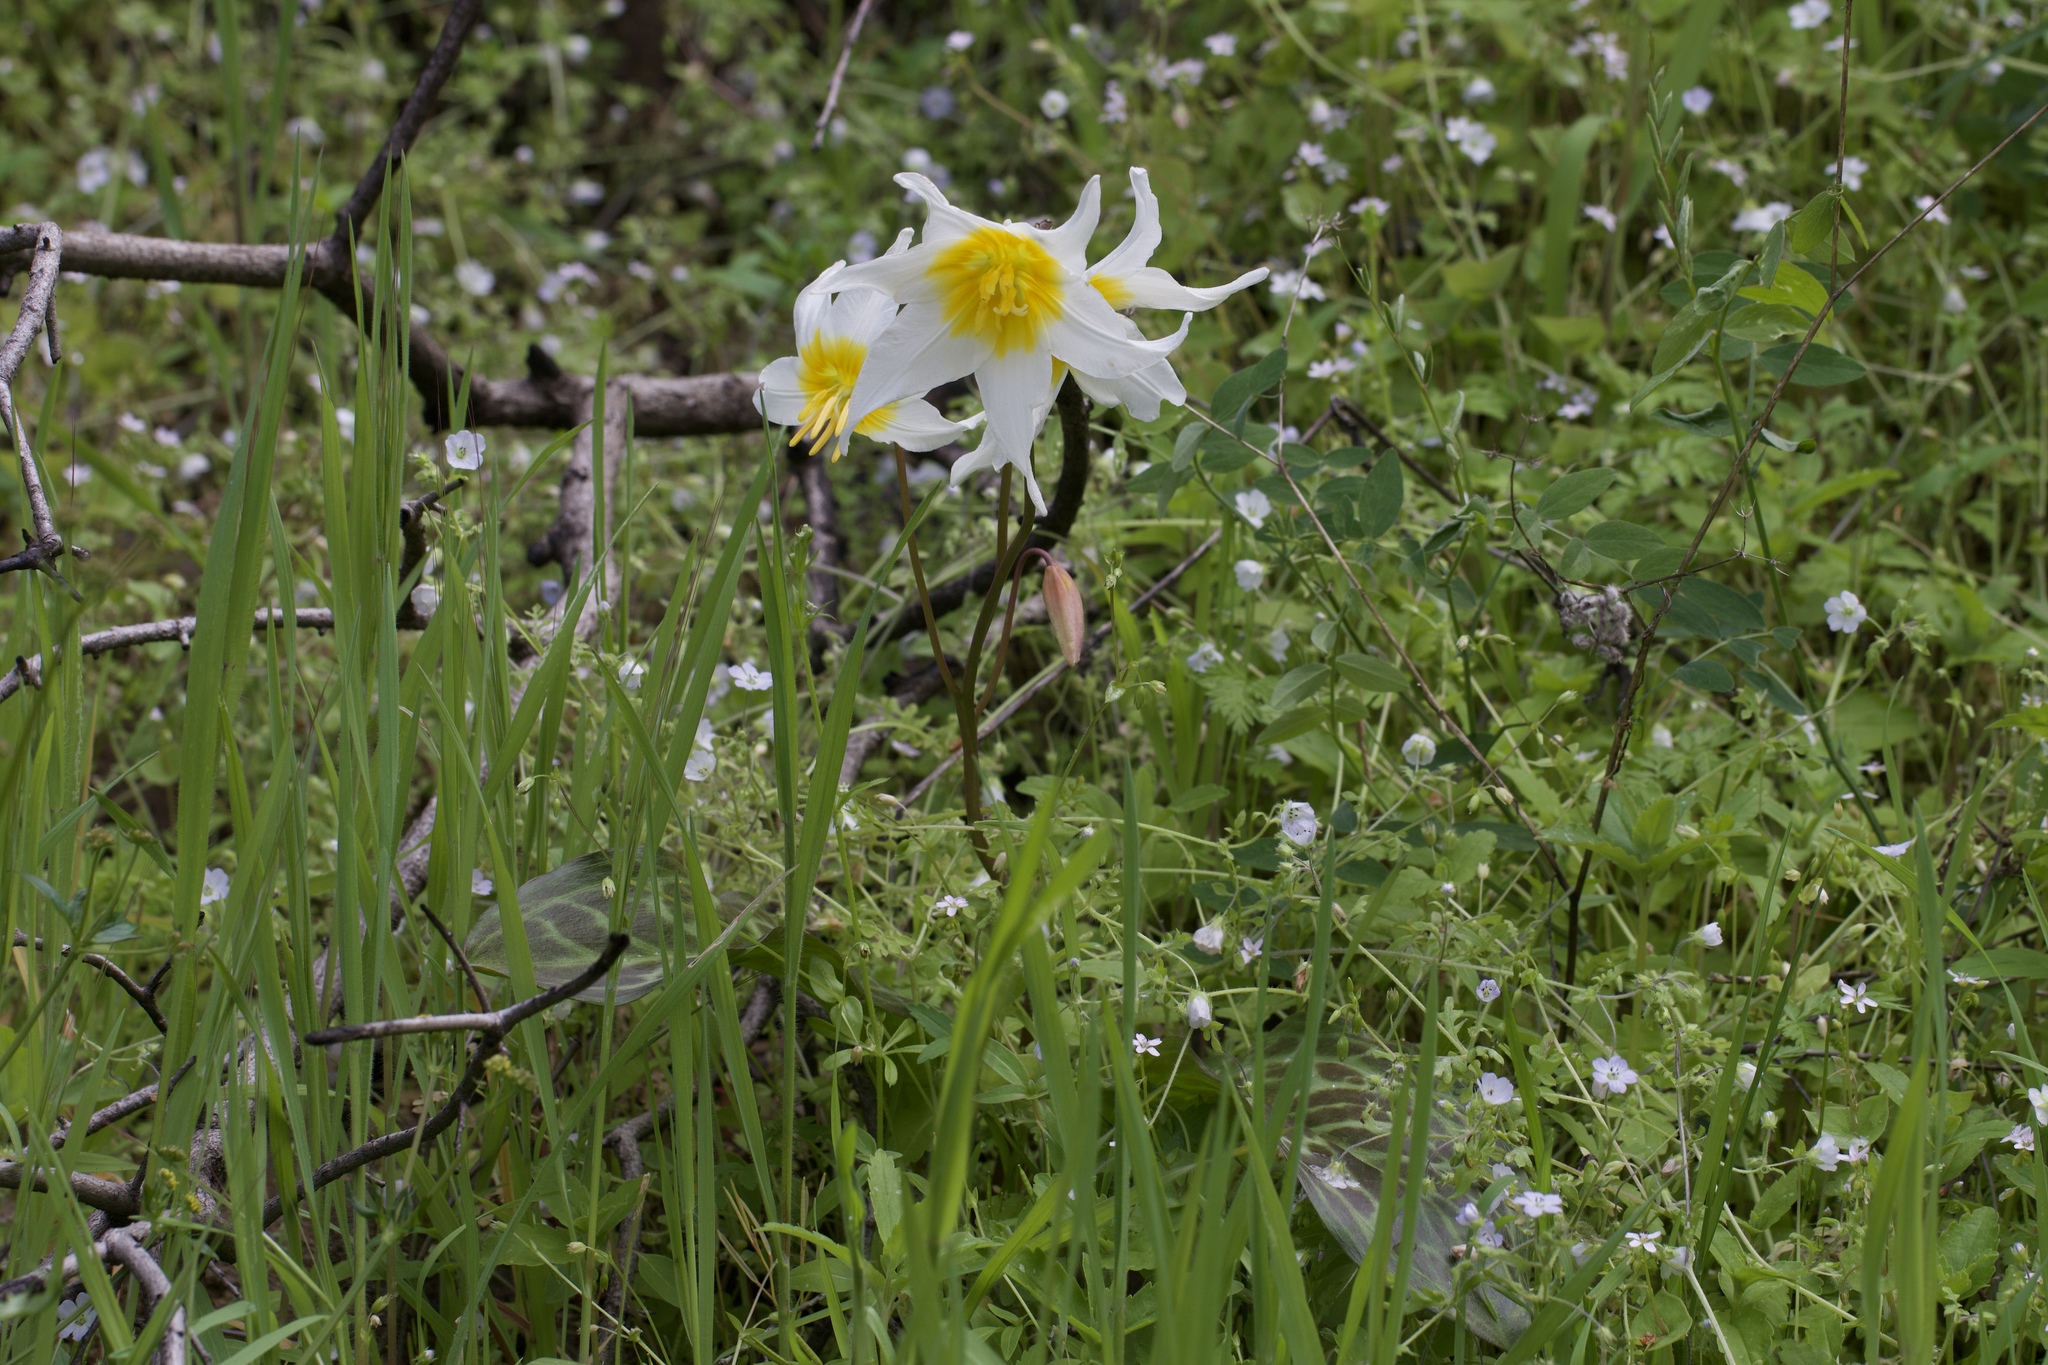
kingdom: Plantae
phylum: Tracheophyta
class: Liliopsida
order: Liliales
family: Liliaceae
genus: Erythronium
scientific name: Erythronium helenae
